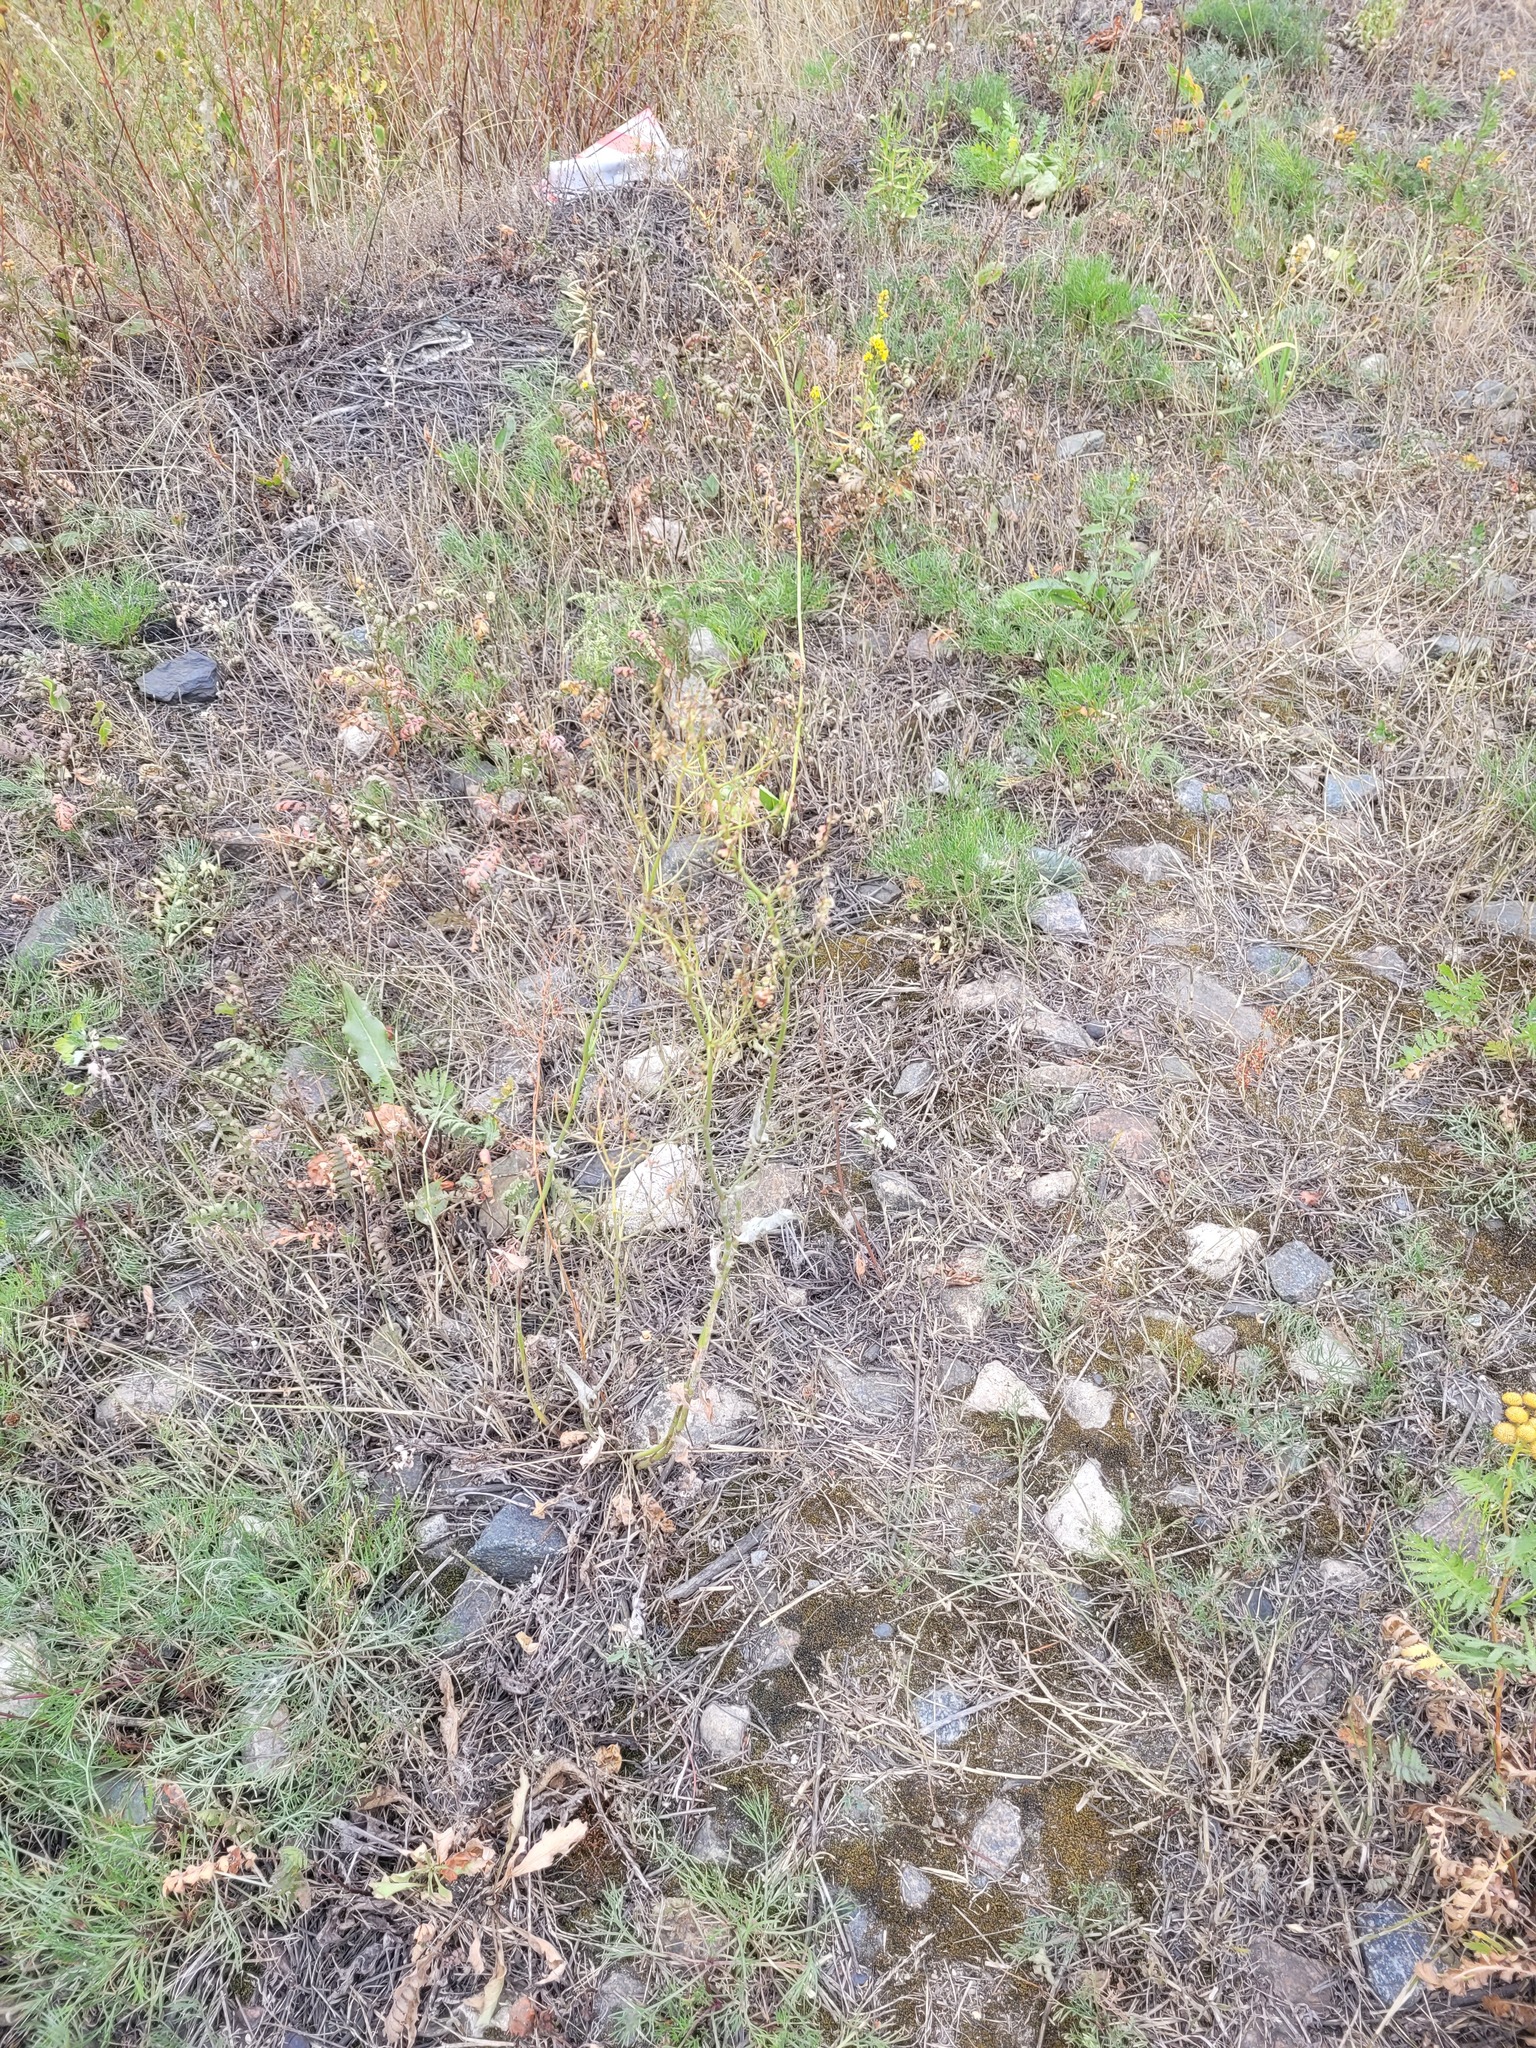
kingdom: Plantae
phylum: Tracheophyta
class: Magnoliopsida
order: Caryophyllales
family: Polygonaceae
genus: Rumex
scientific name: Rumex thyrsiflorus
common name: Garden sorrel
